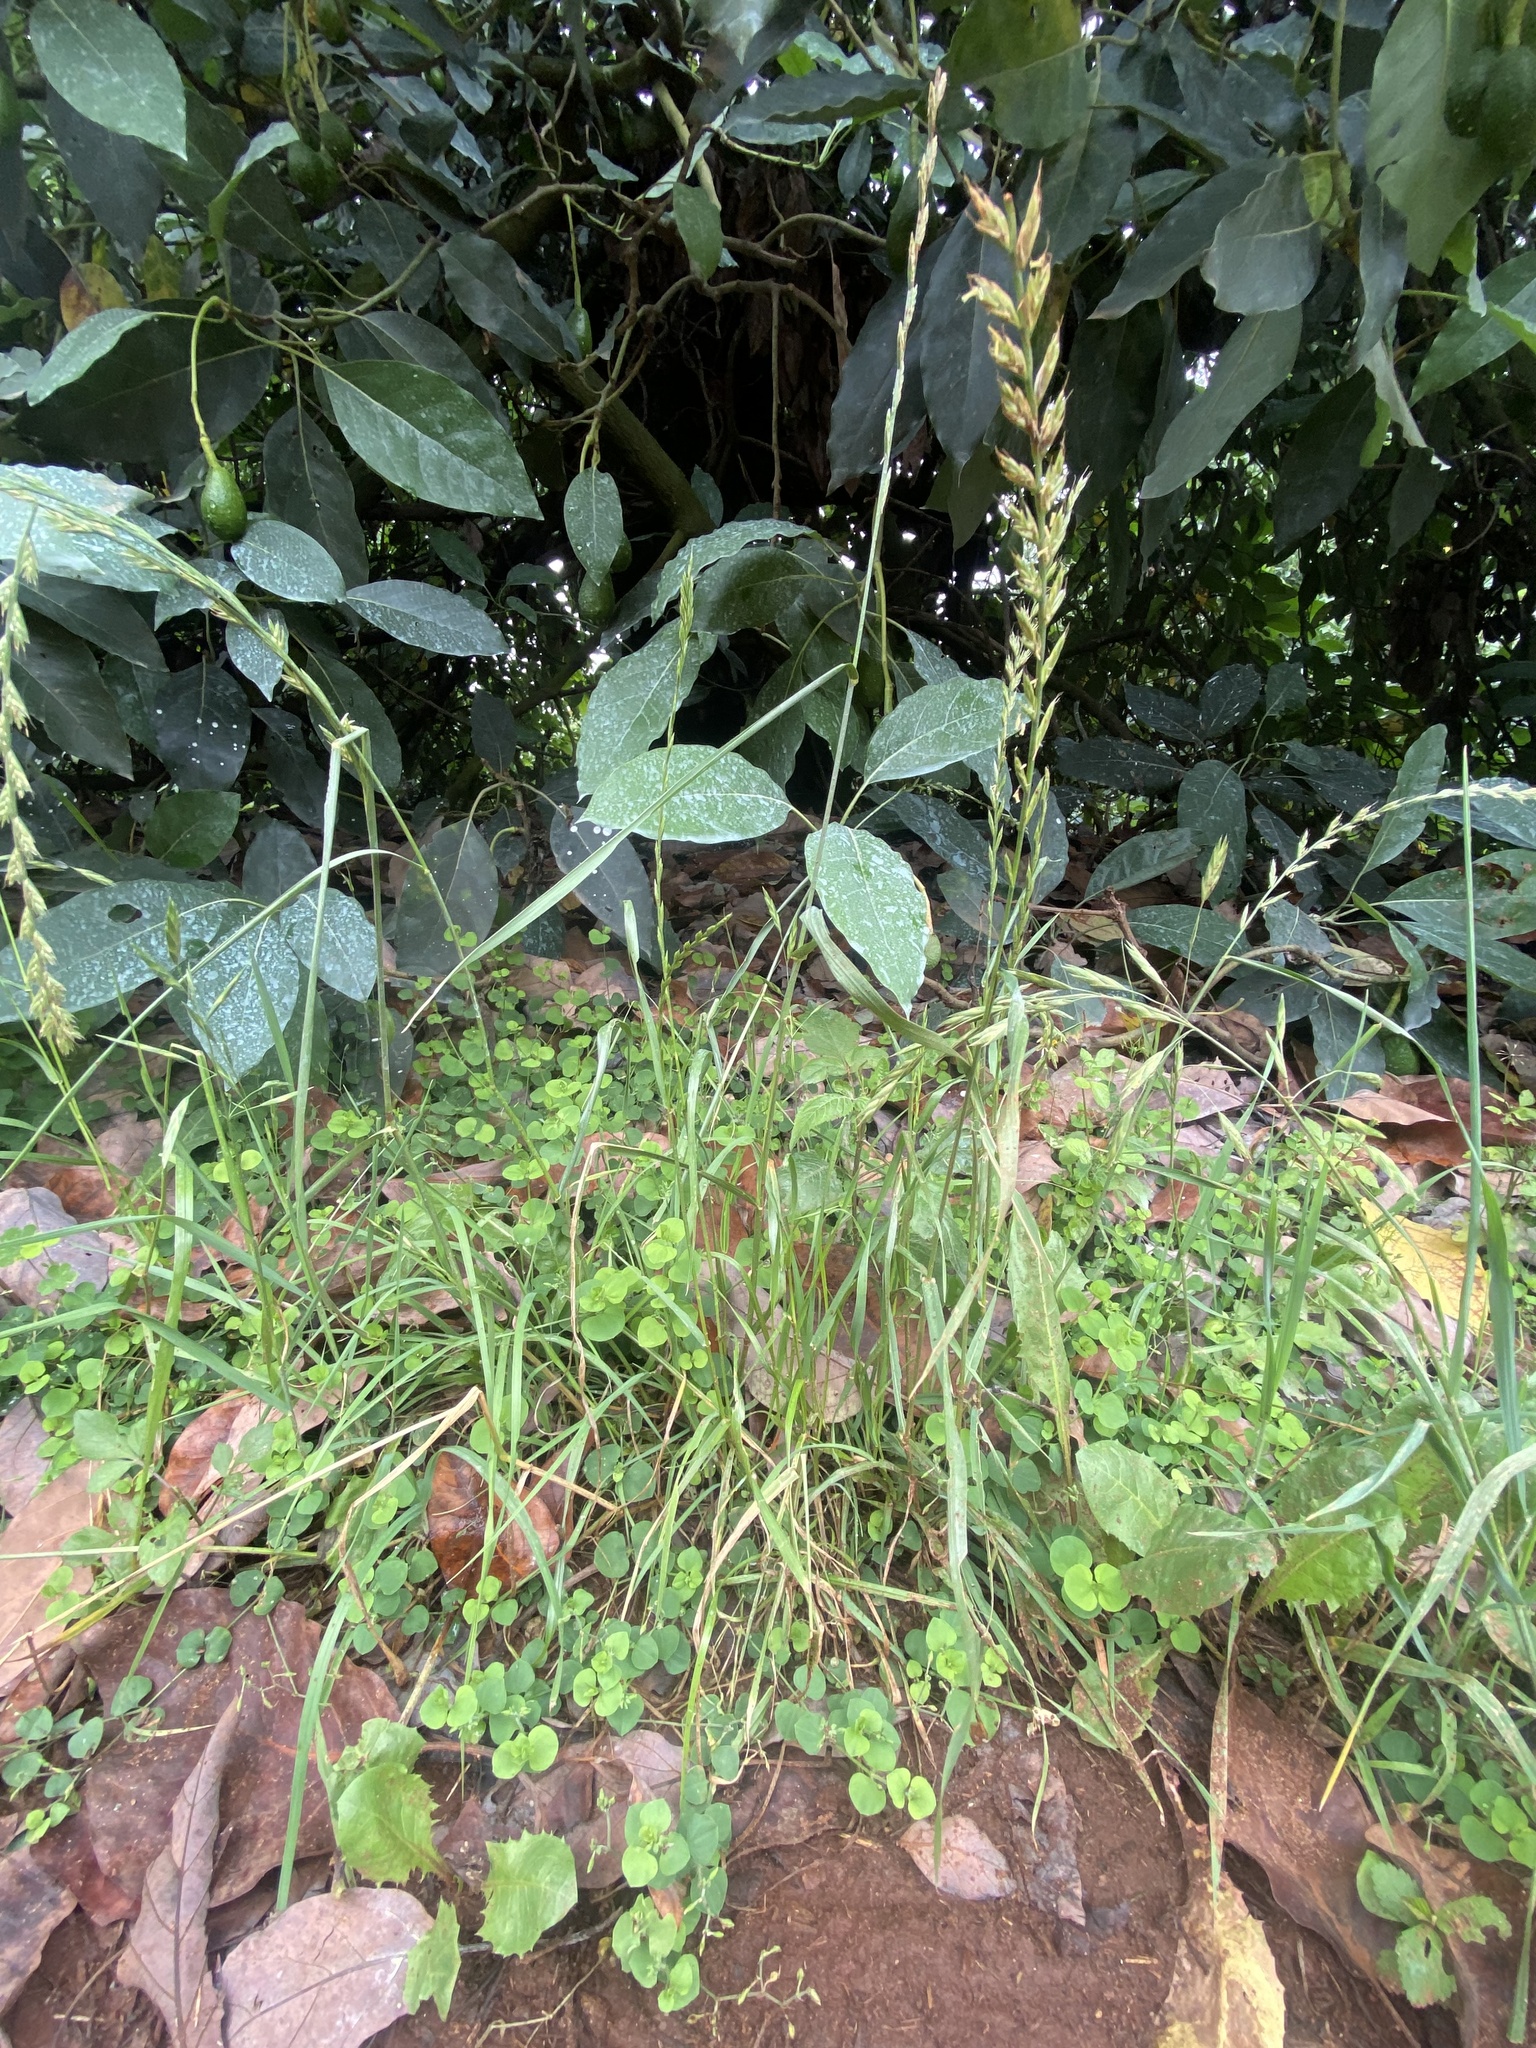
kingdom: Plantae
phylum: Tracheophyta
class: Liliopsida
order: Poales
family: Poaceae
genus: Lolium
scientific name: Lolium multiflorum
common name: Annual ryegrass
